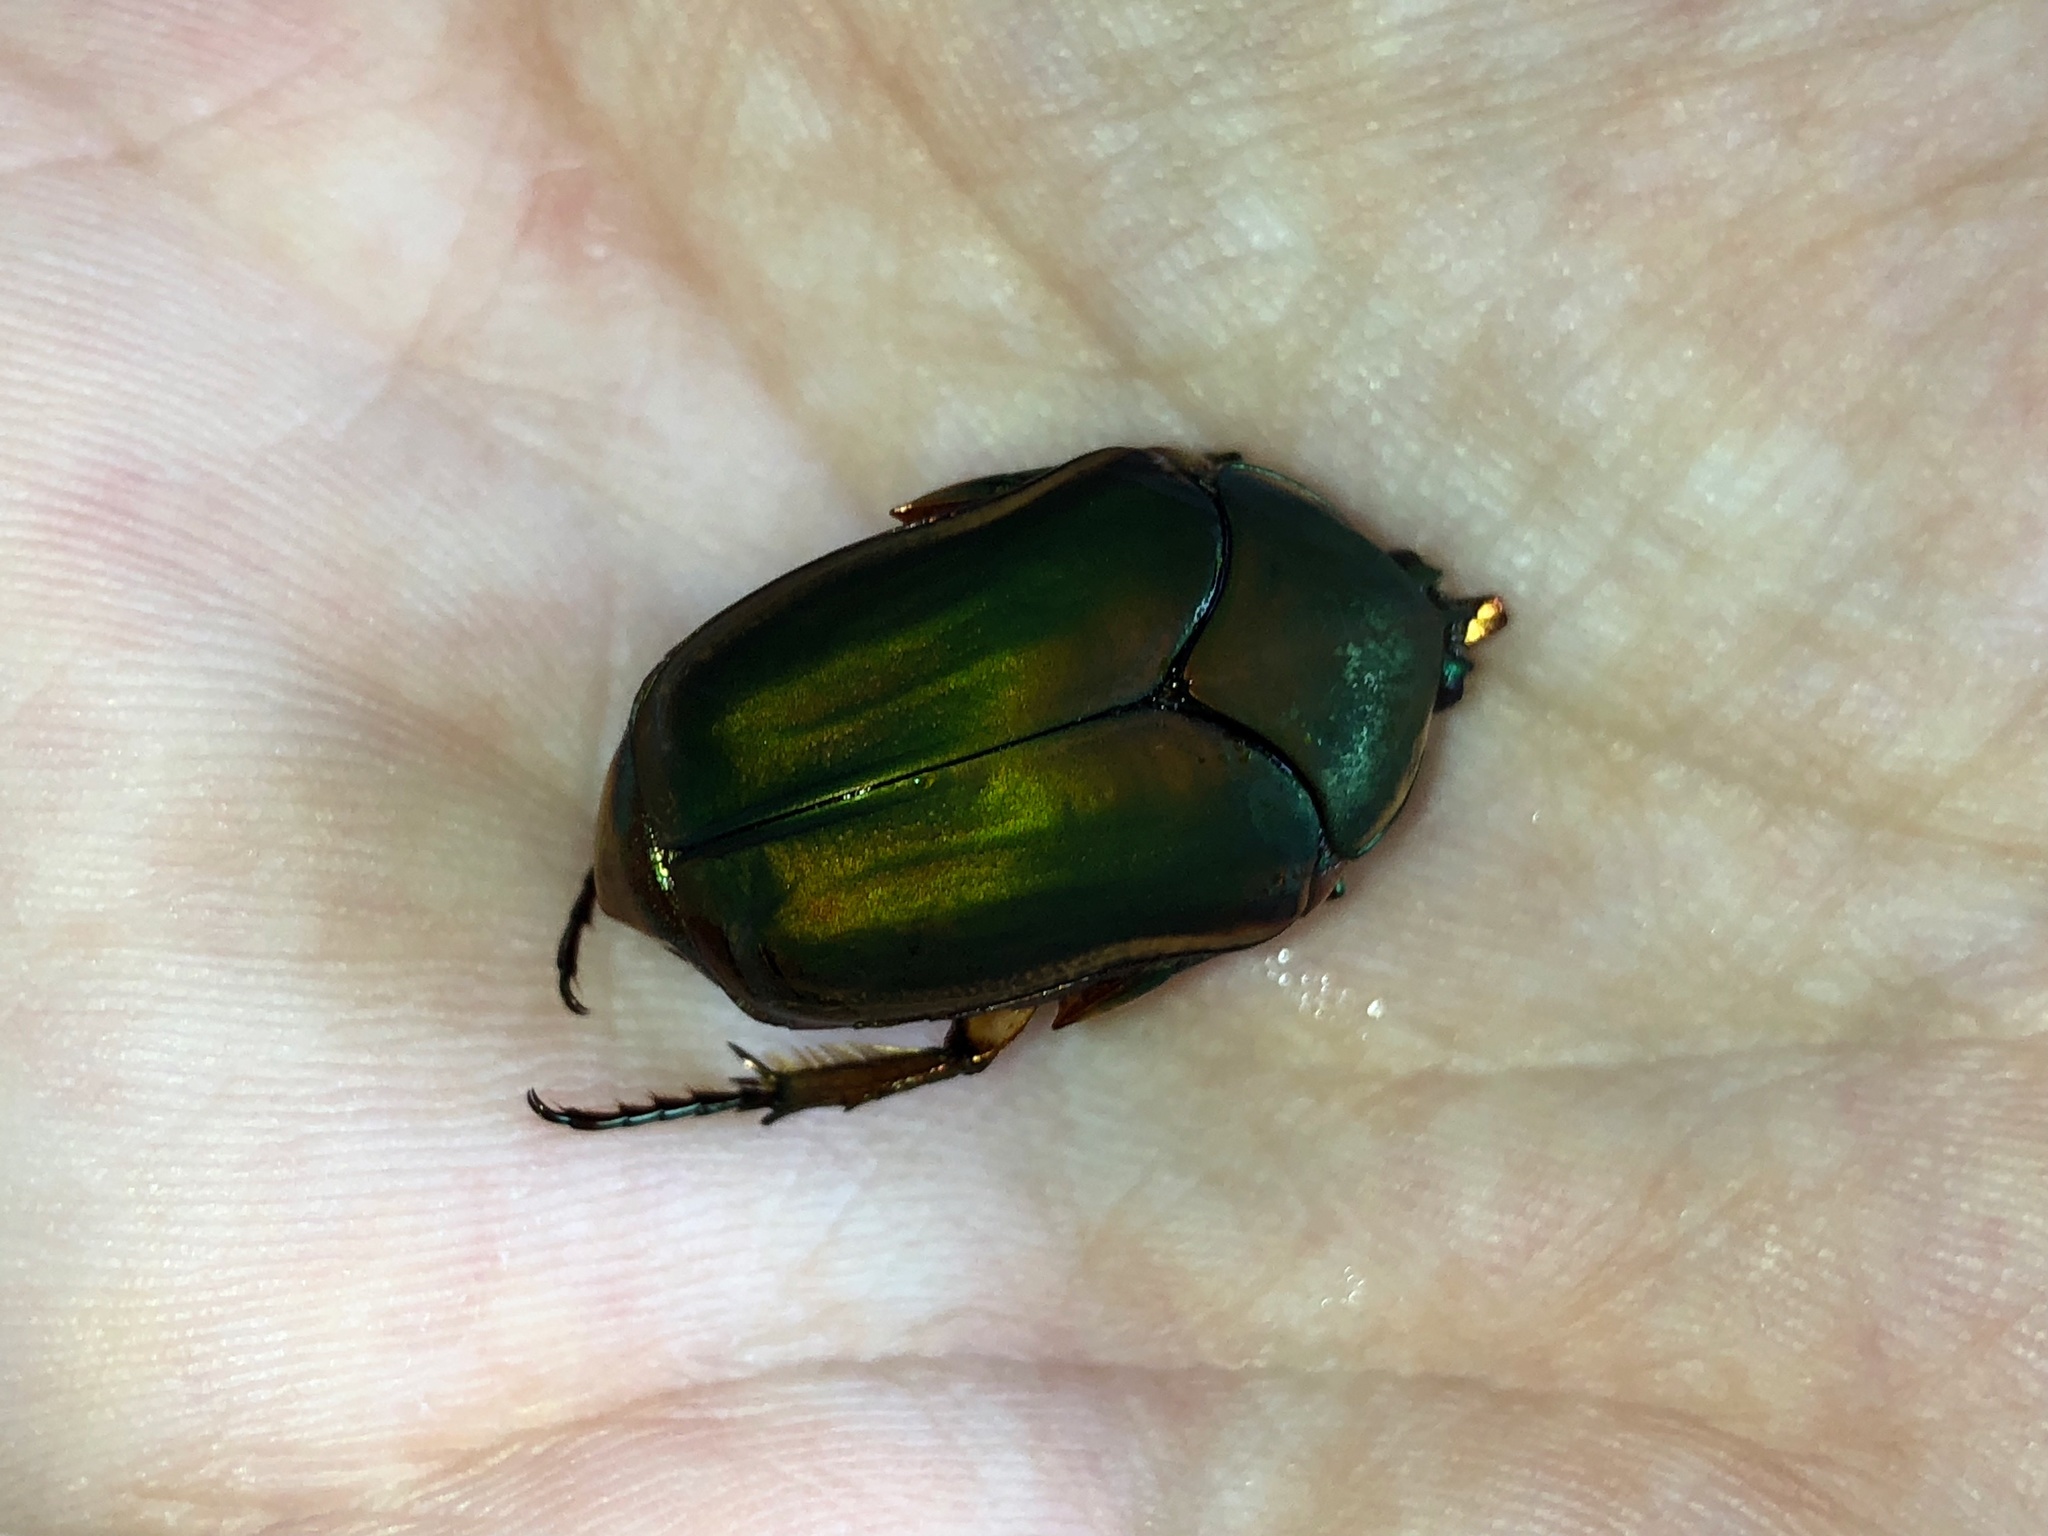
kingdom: Animalia
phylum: Arthropoda
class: Insecta
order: Coleoptera
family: Scarabaeidae
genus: Cotinis
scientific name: Cotinis nitida
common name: Common green june beetle
